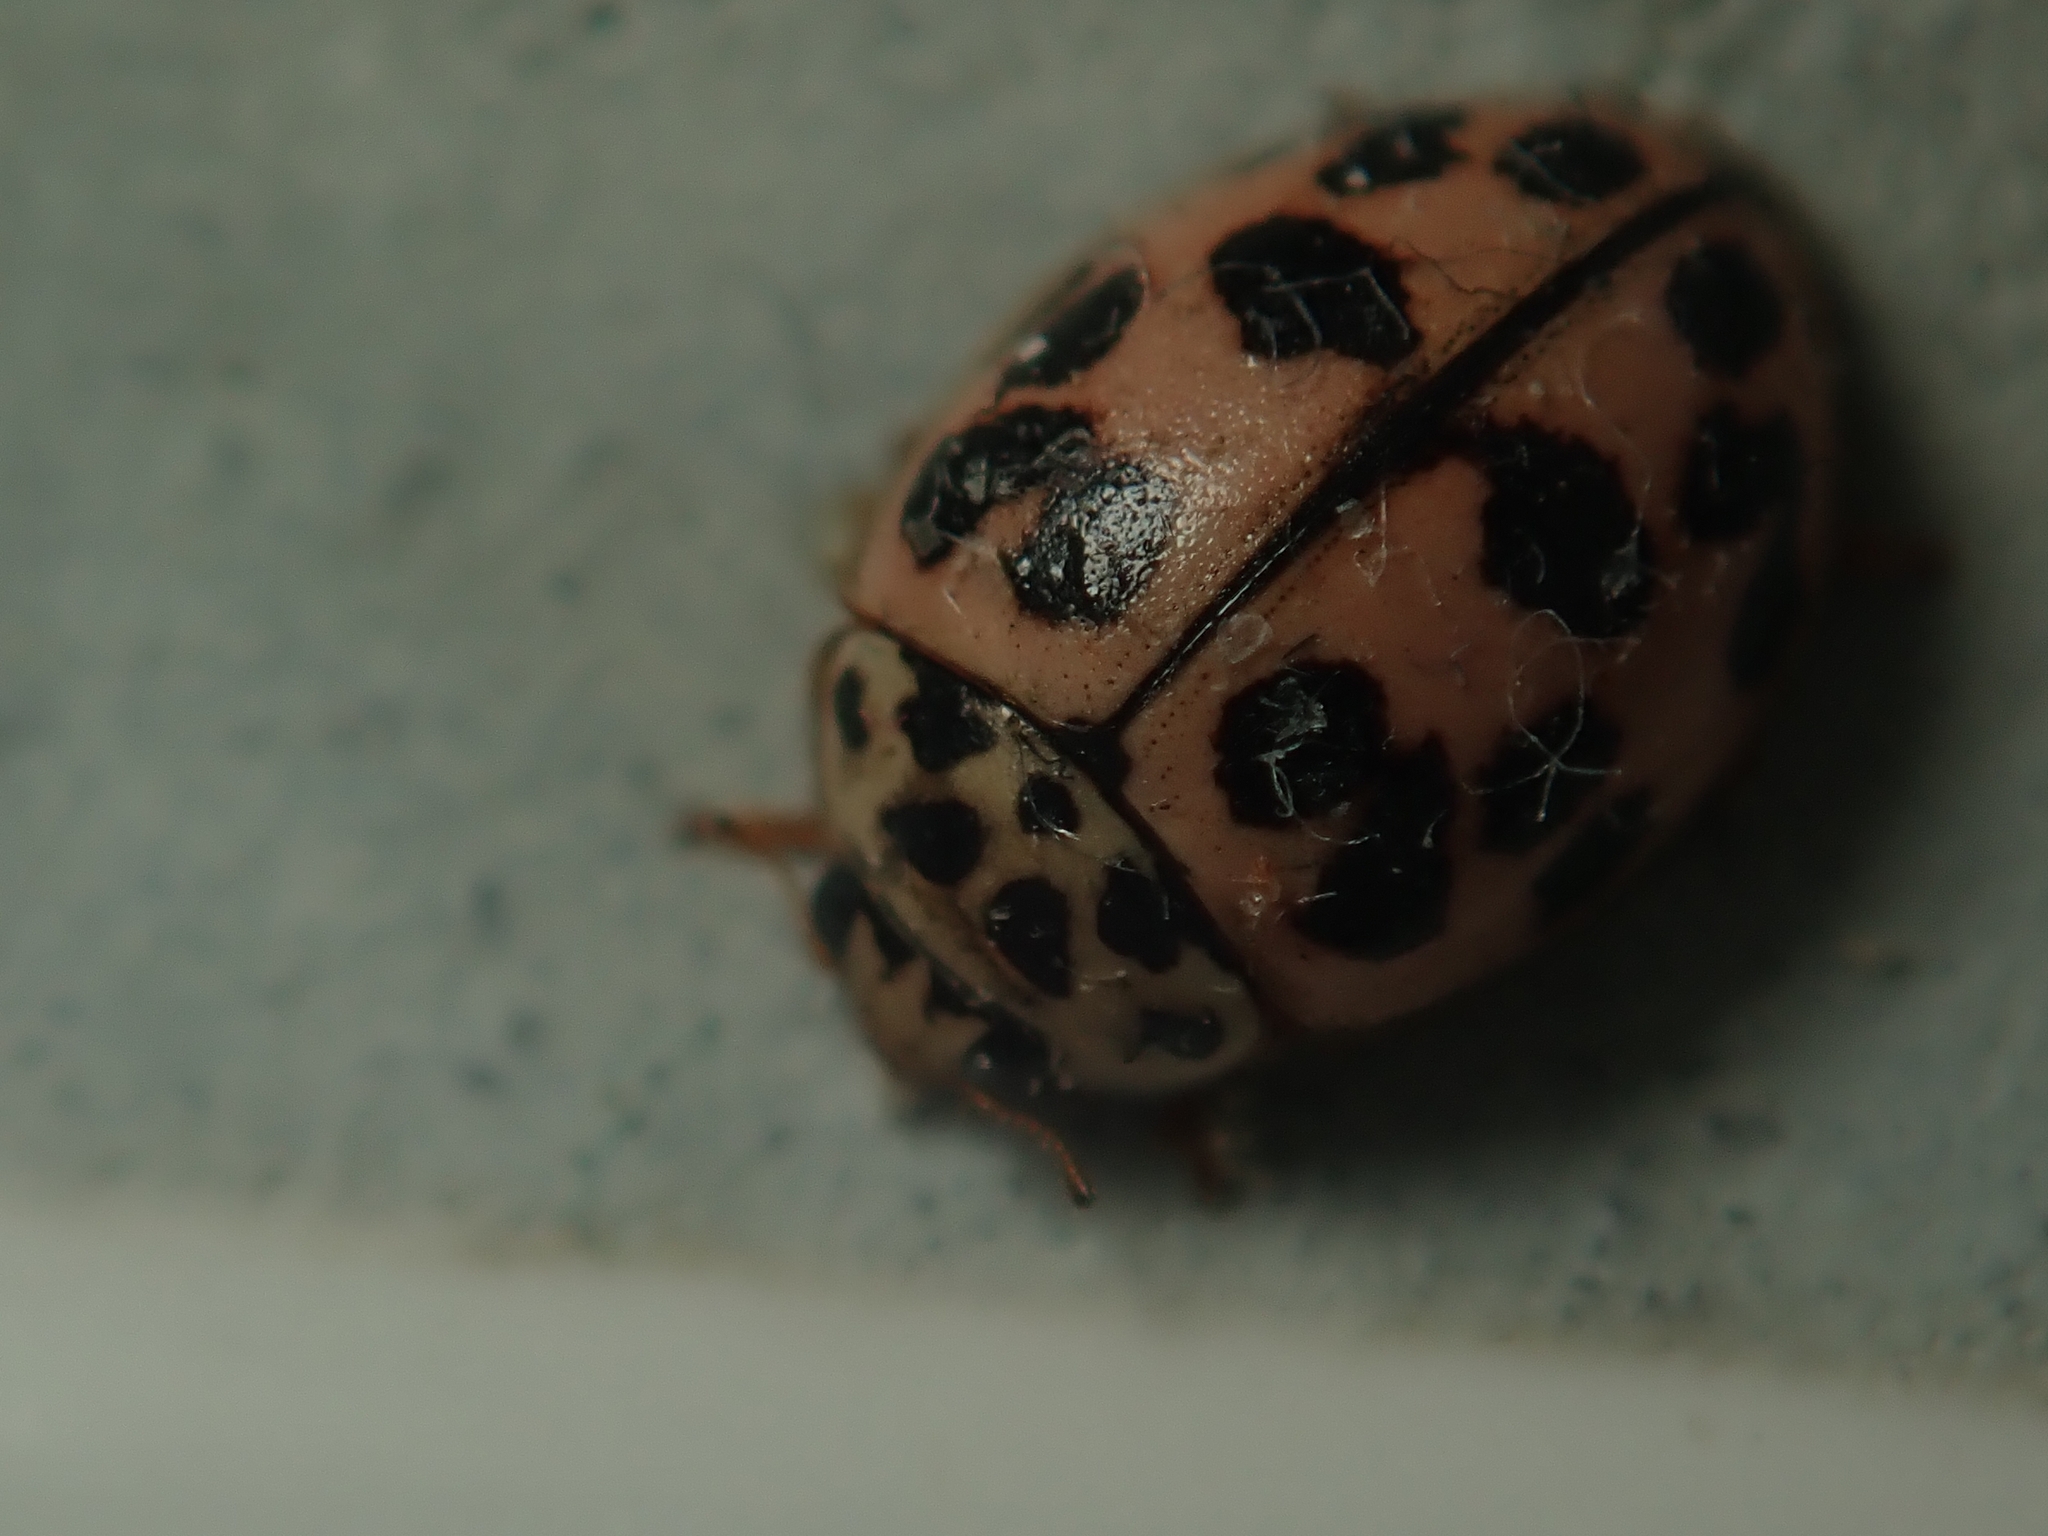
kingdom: Animalia
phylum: Arthropoda
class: Insecta
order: Coleoptera
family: Coccinellidae
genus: Oenopia
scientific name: Oenopia conglobata
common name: Ladybird beetle
